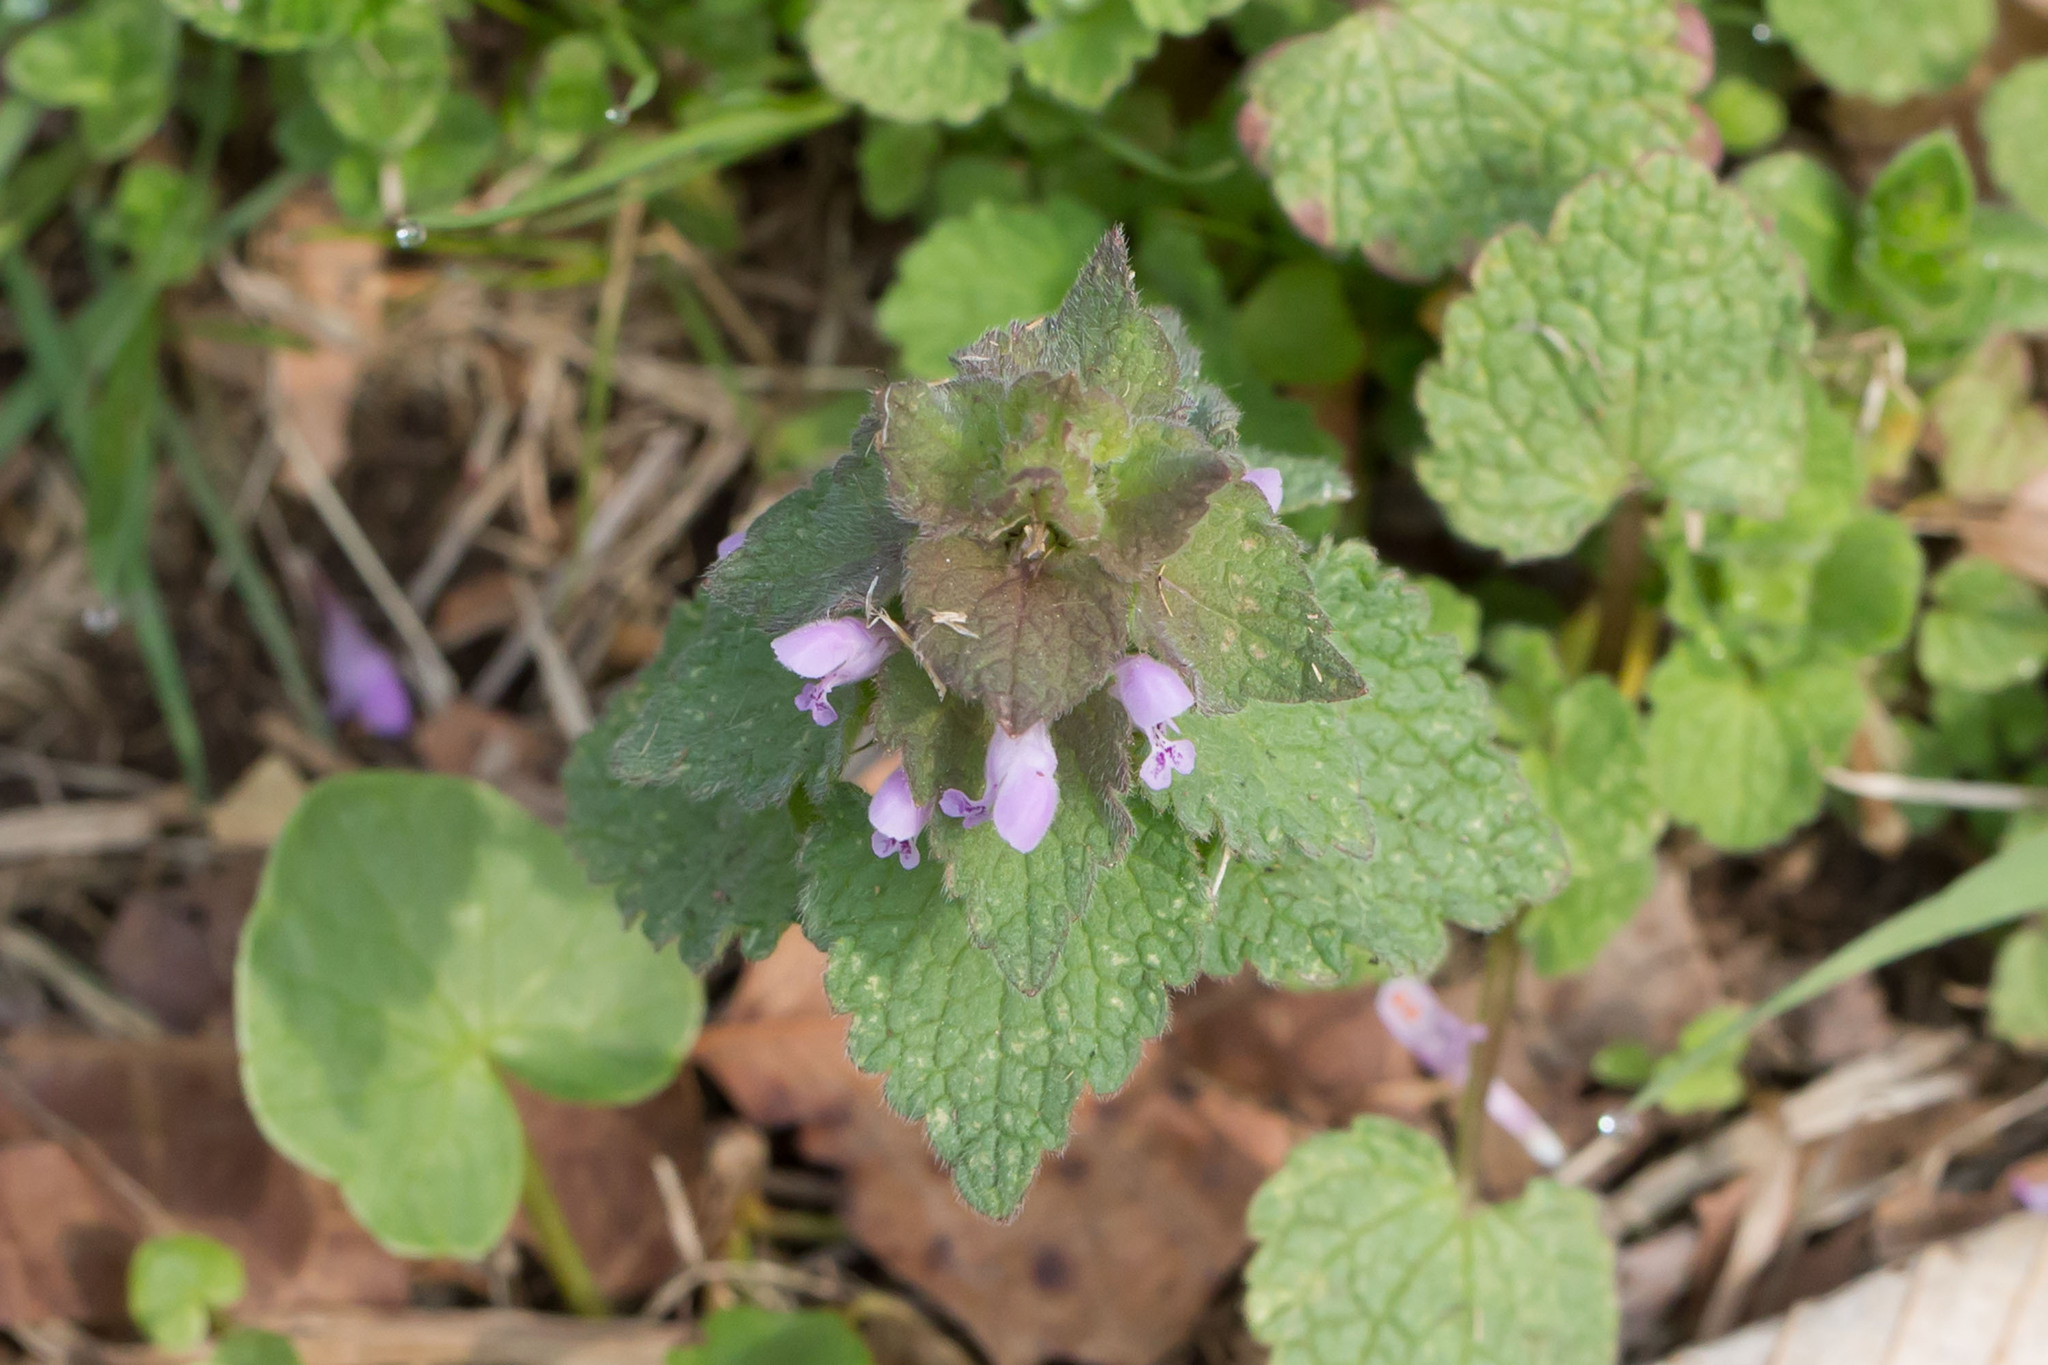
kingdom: Plantae
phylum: Tracheophyta
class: Magnoliopsida
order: Lamiales
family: Lamiaceae
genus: Lamium
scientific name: Lamium purpureum
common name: Red dead-nettle
